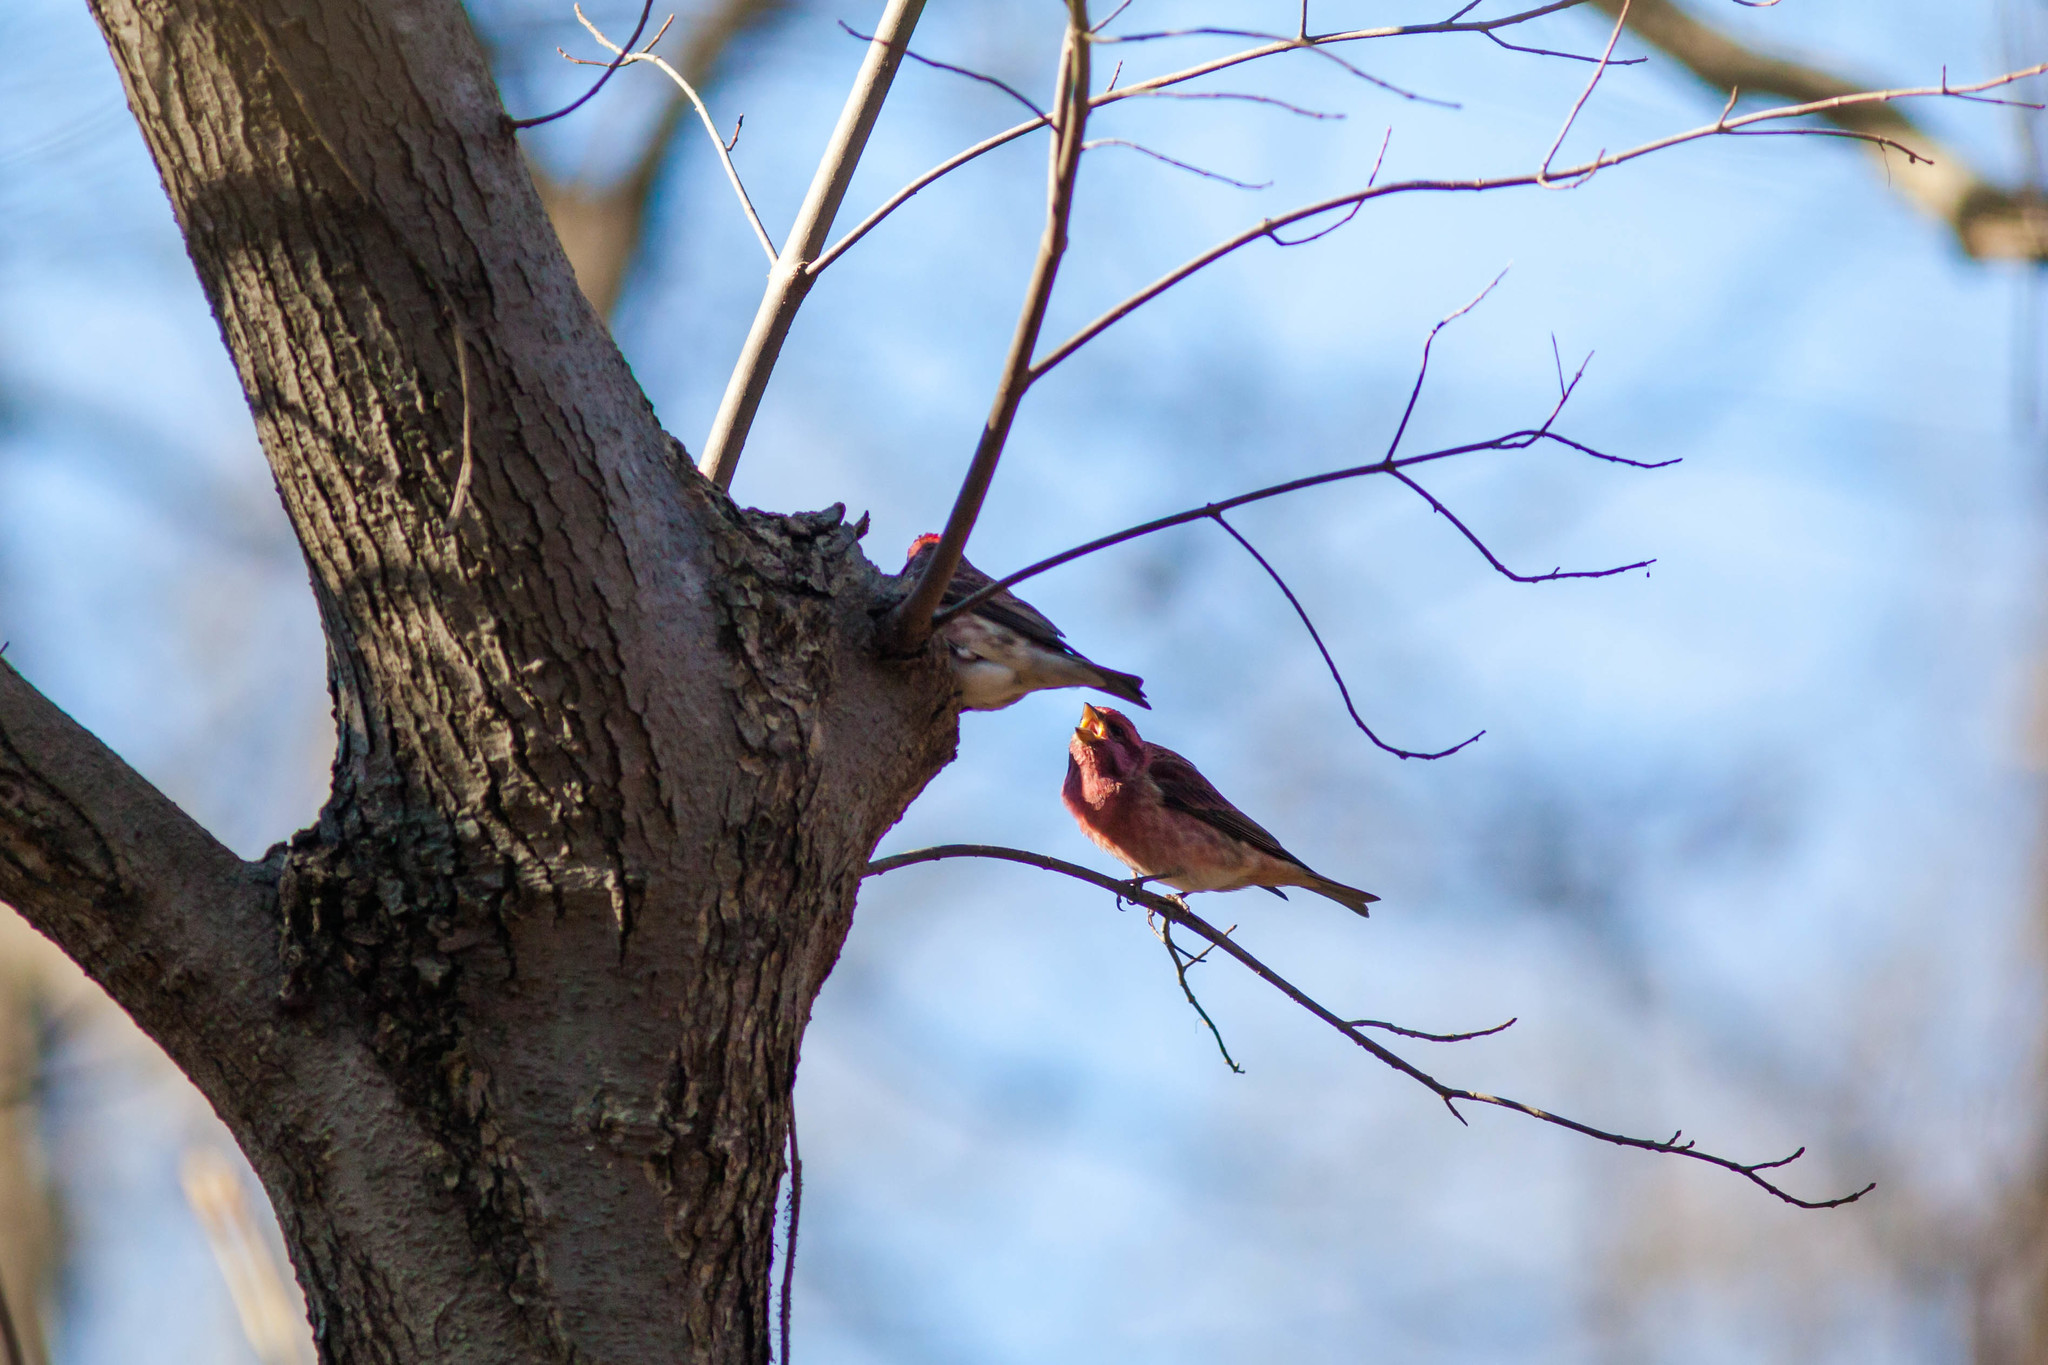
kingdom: Animalia
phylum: Chordata
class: Aves
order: Passeriformes
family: Fringillidae
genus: Haemorhous
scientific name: Haemorhous purpureus
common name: Purple finch
